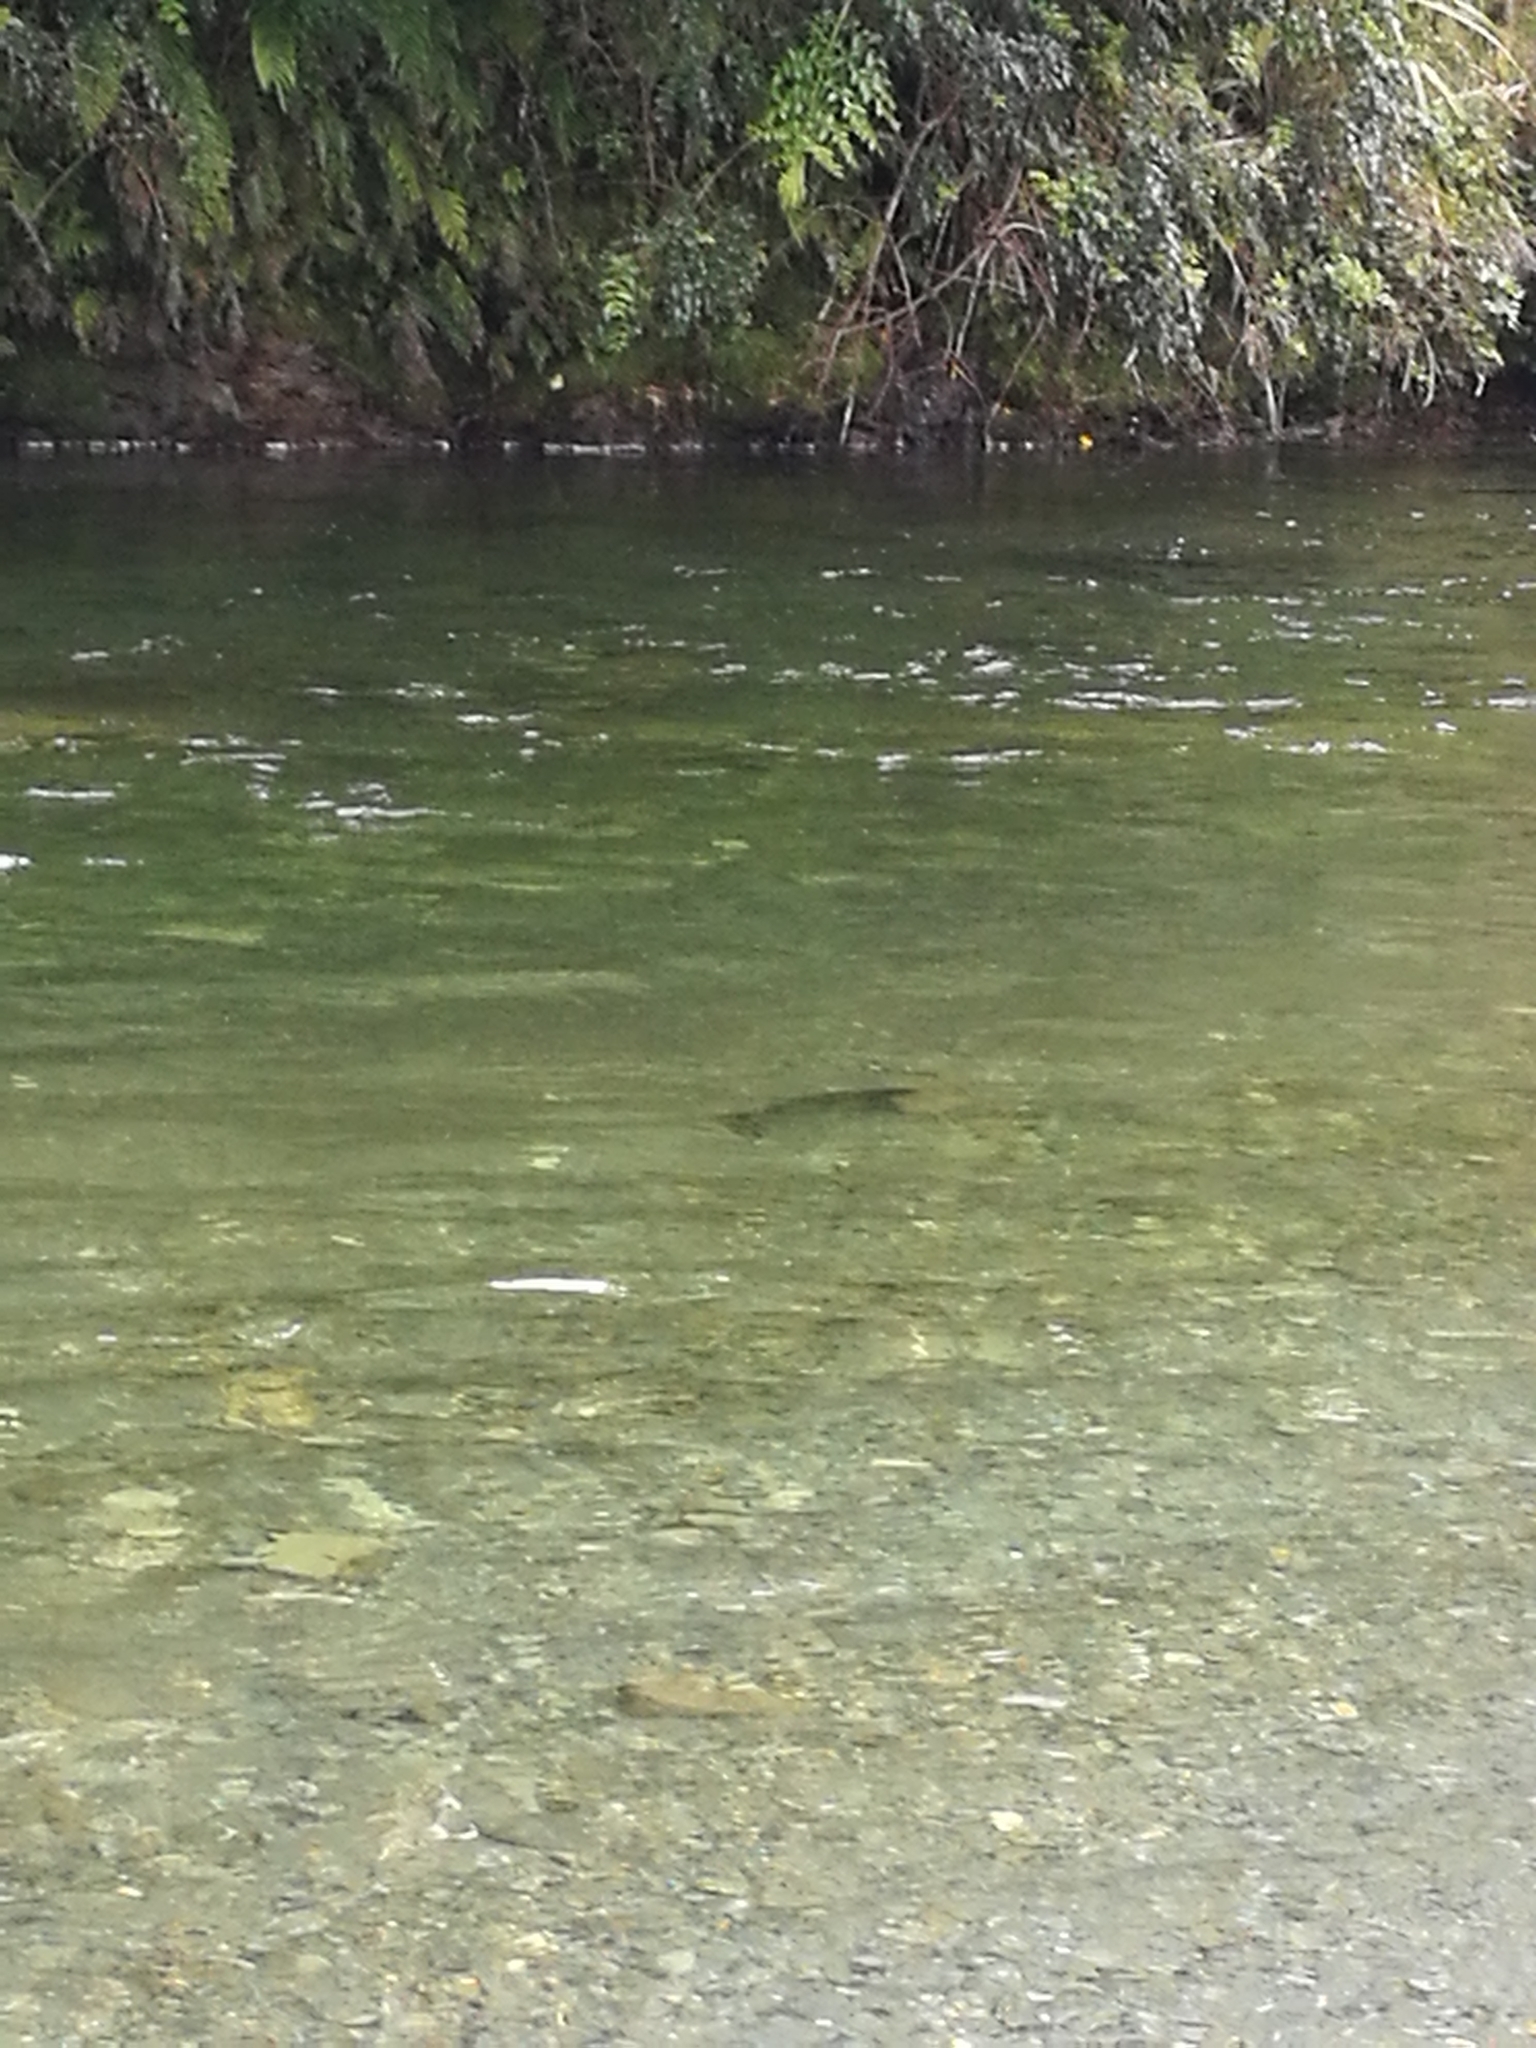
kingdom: Animalia
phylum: Chordata
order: Salmoniformes
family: Salmonidae
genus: Salmo
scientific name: Salmo trutta
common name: Brown trout
